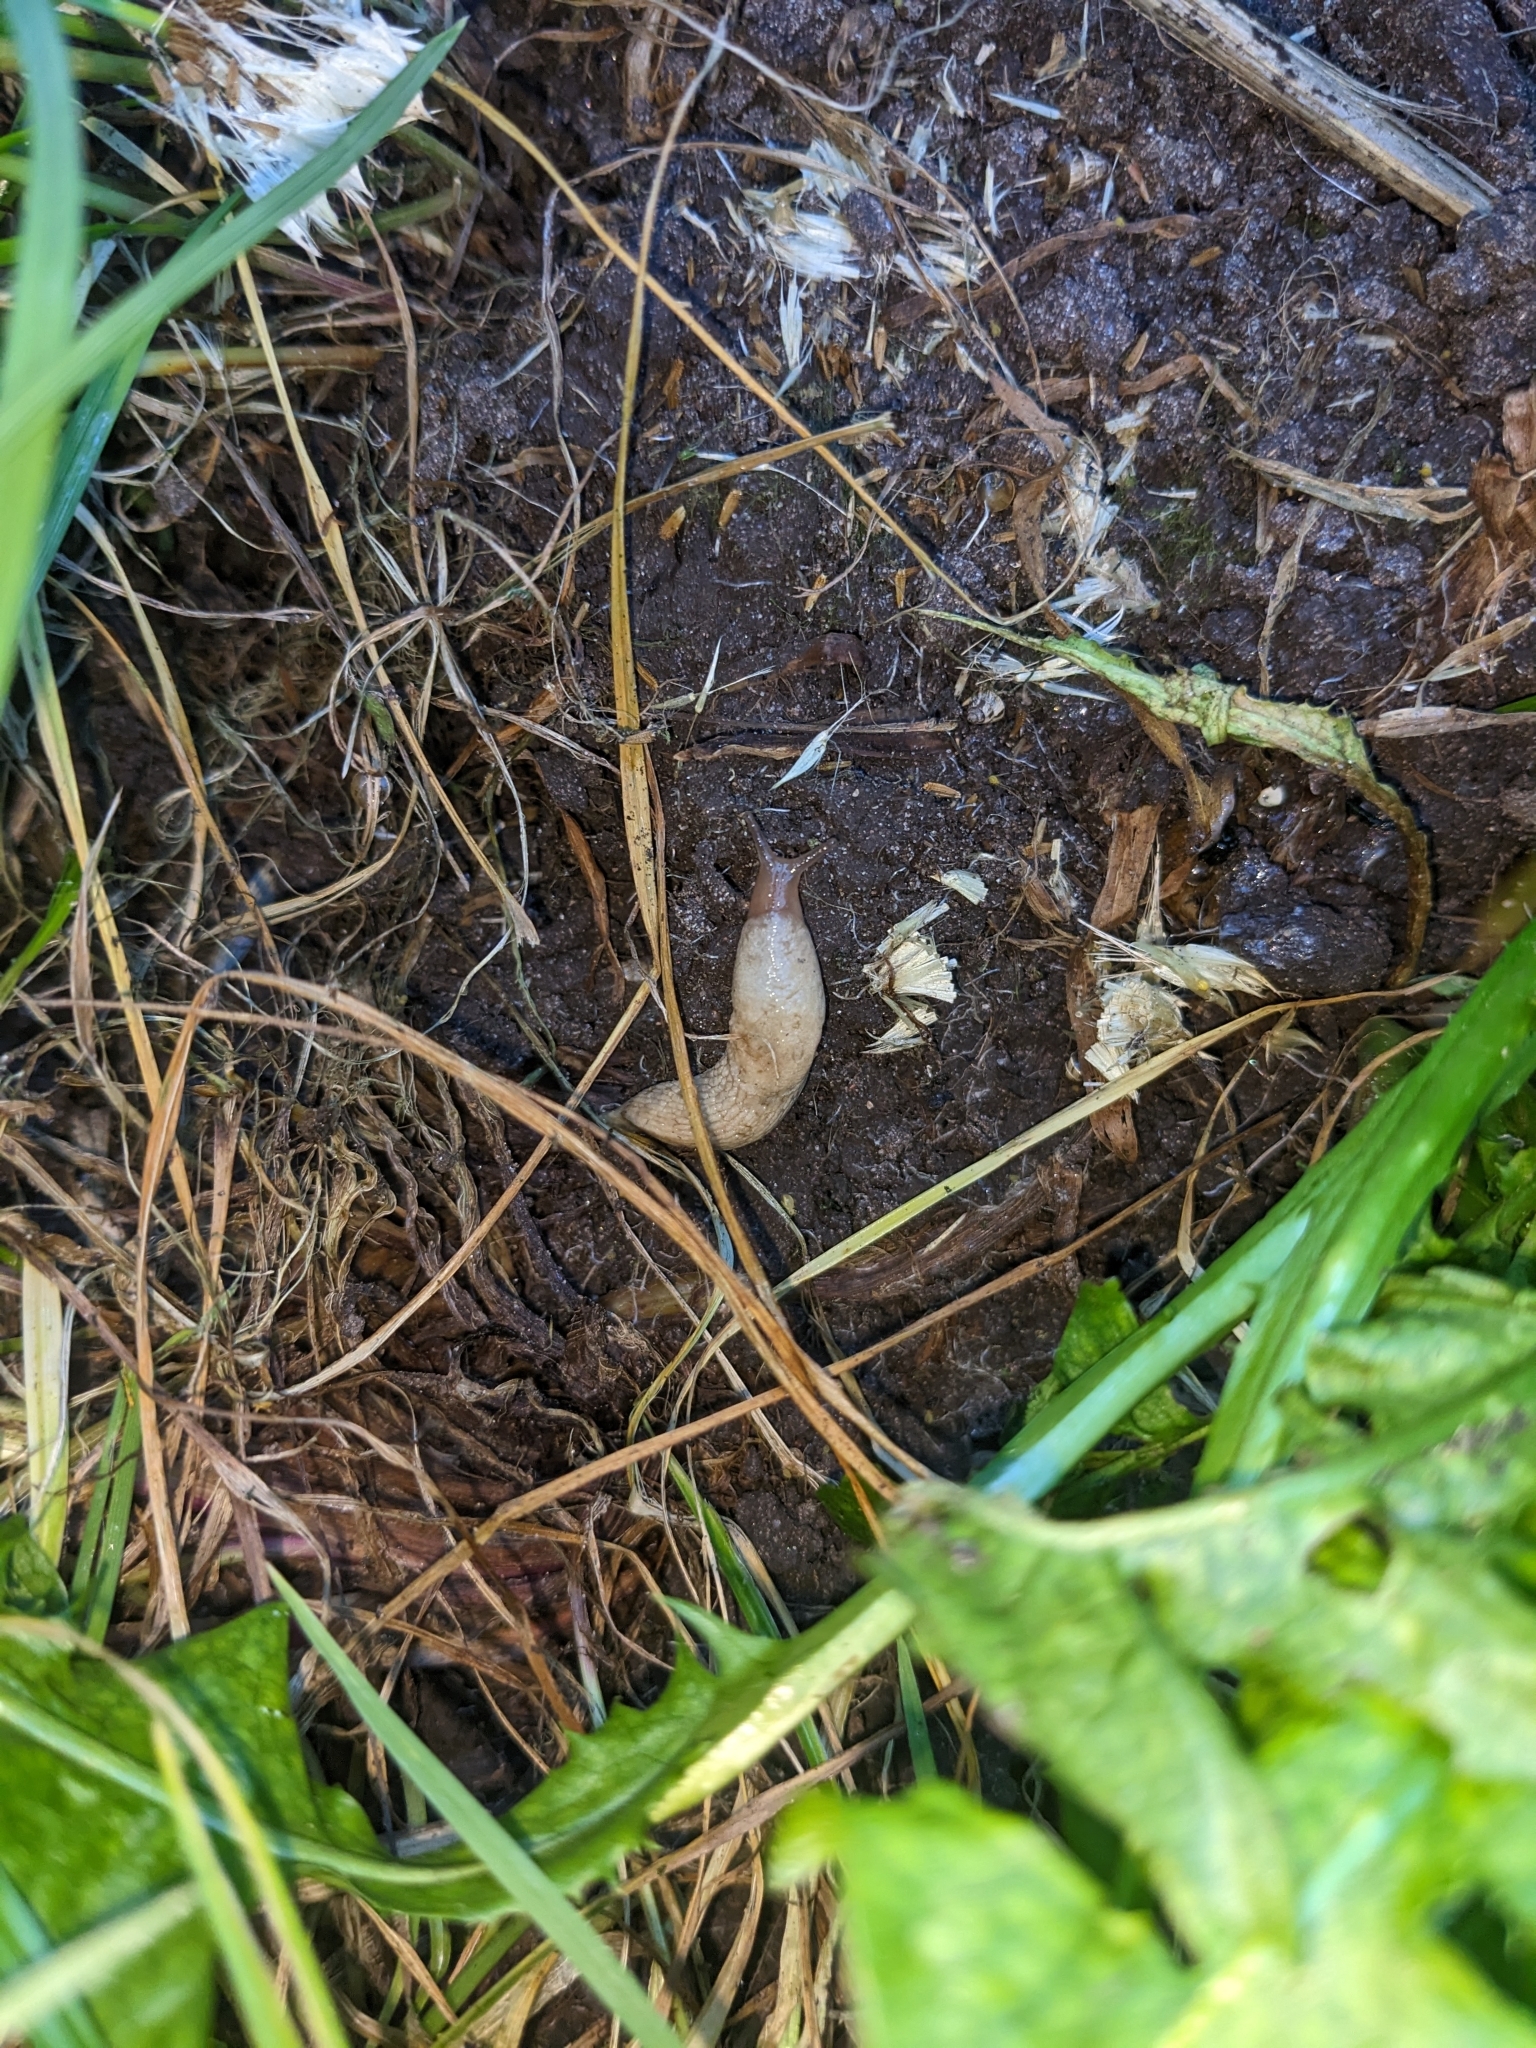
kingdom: Animalia
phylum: Mollusca
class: Gastropoda
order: Stylommatophora
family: Agriolimacidae
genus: Deroceras
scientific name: Deroceras reticulatum
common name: Gray field slug
